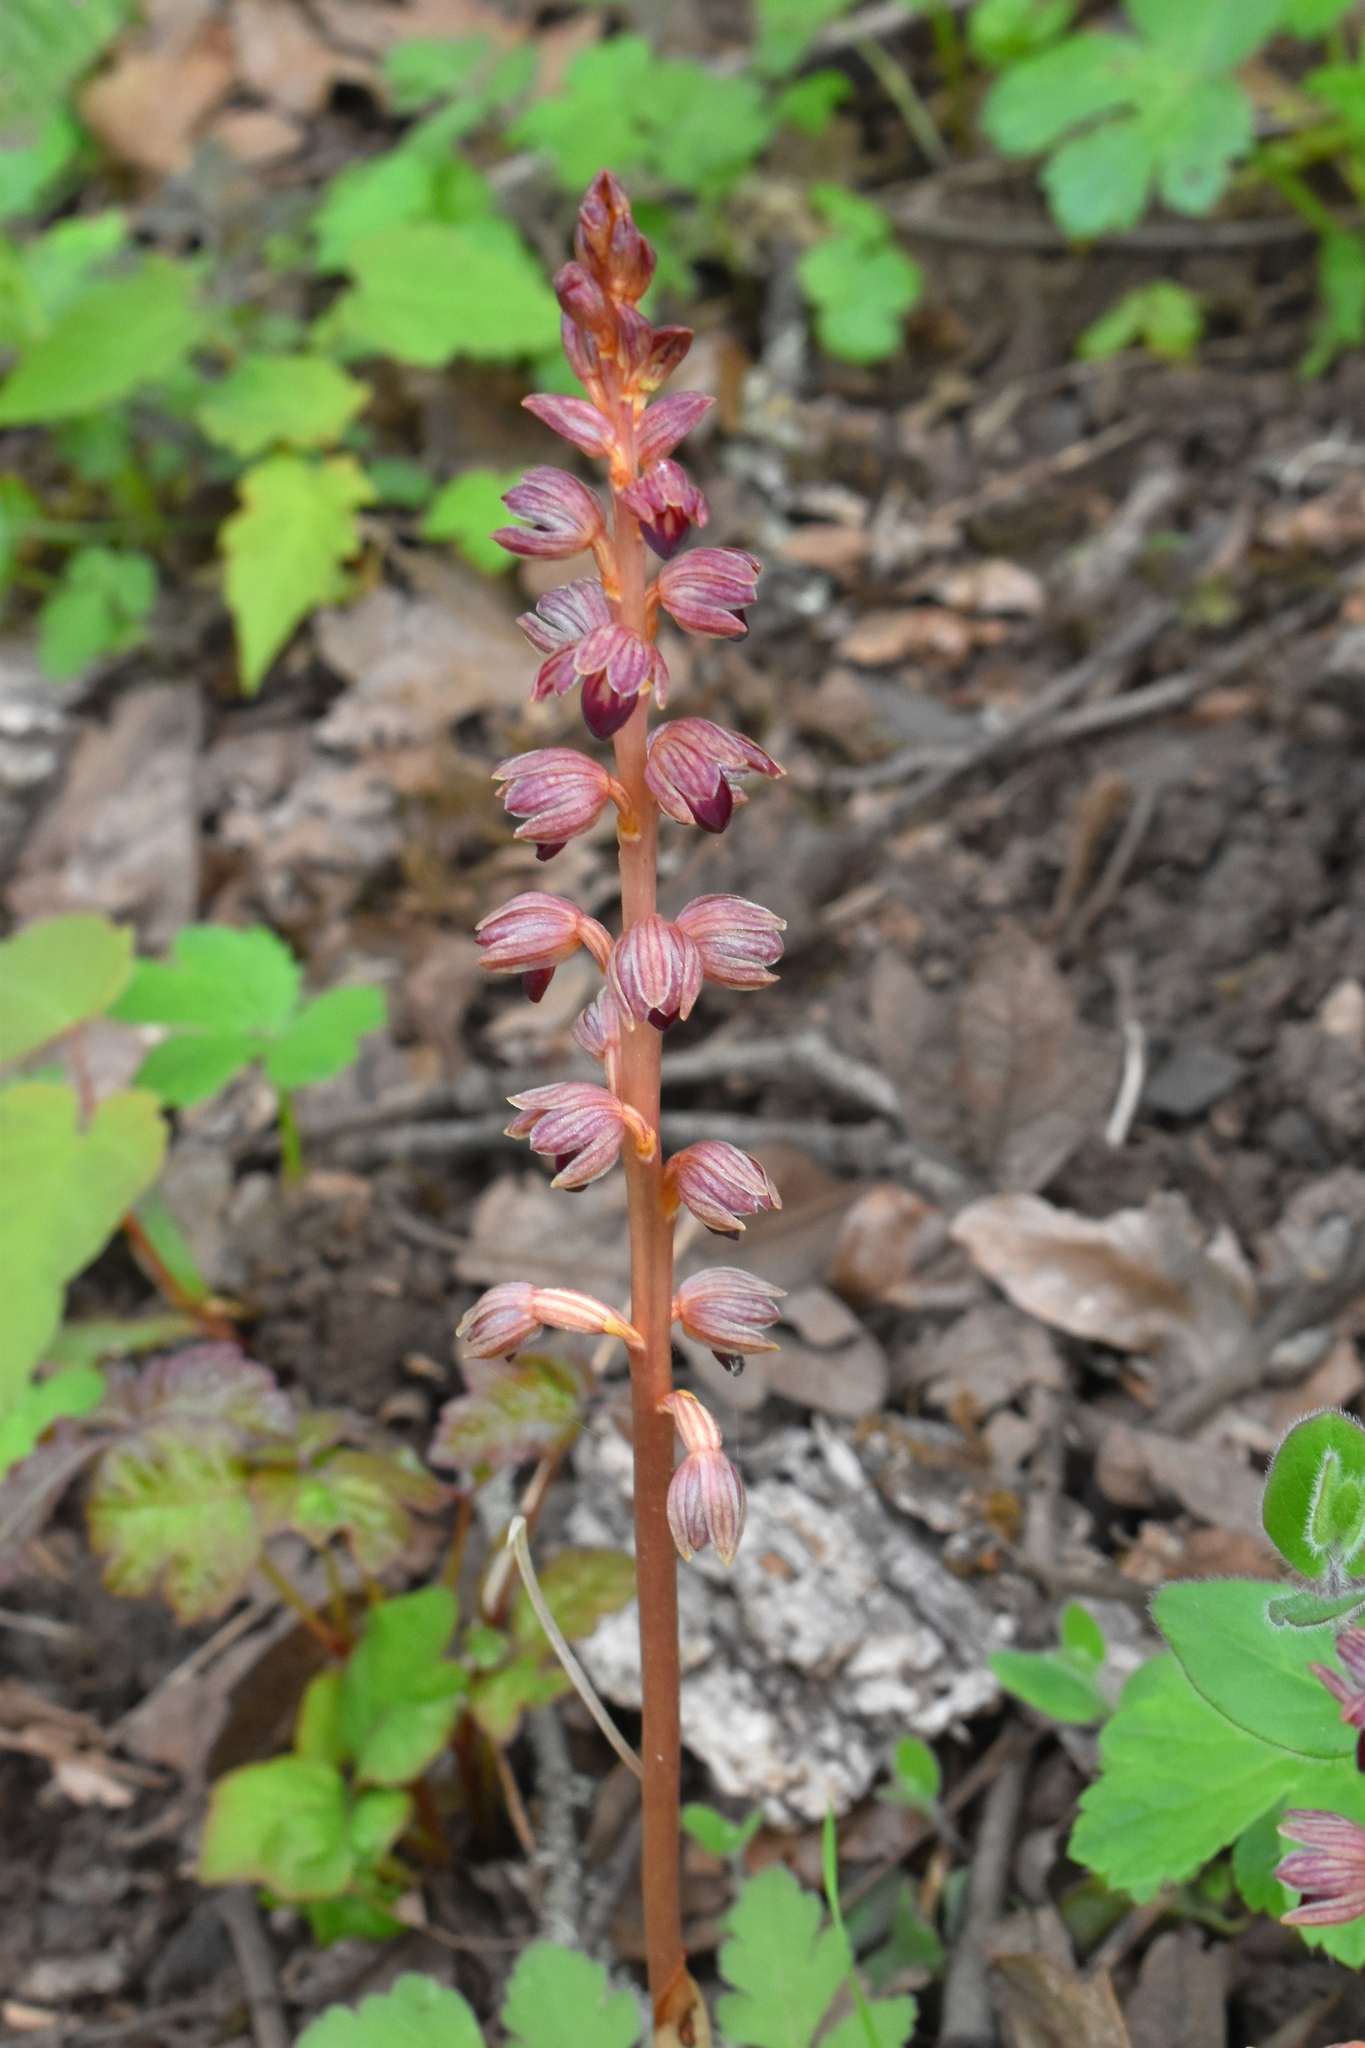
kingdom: Plantae
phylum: Tracheophyta
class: Liliopsida
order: Asparagales
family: Orchidaceae
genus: Corallorhiza
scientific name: Corallorhiza striata
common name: Hooded coralroot
